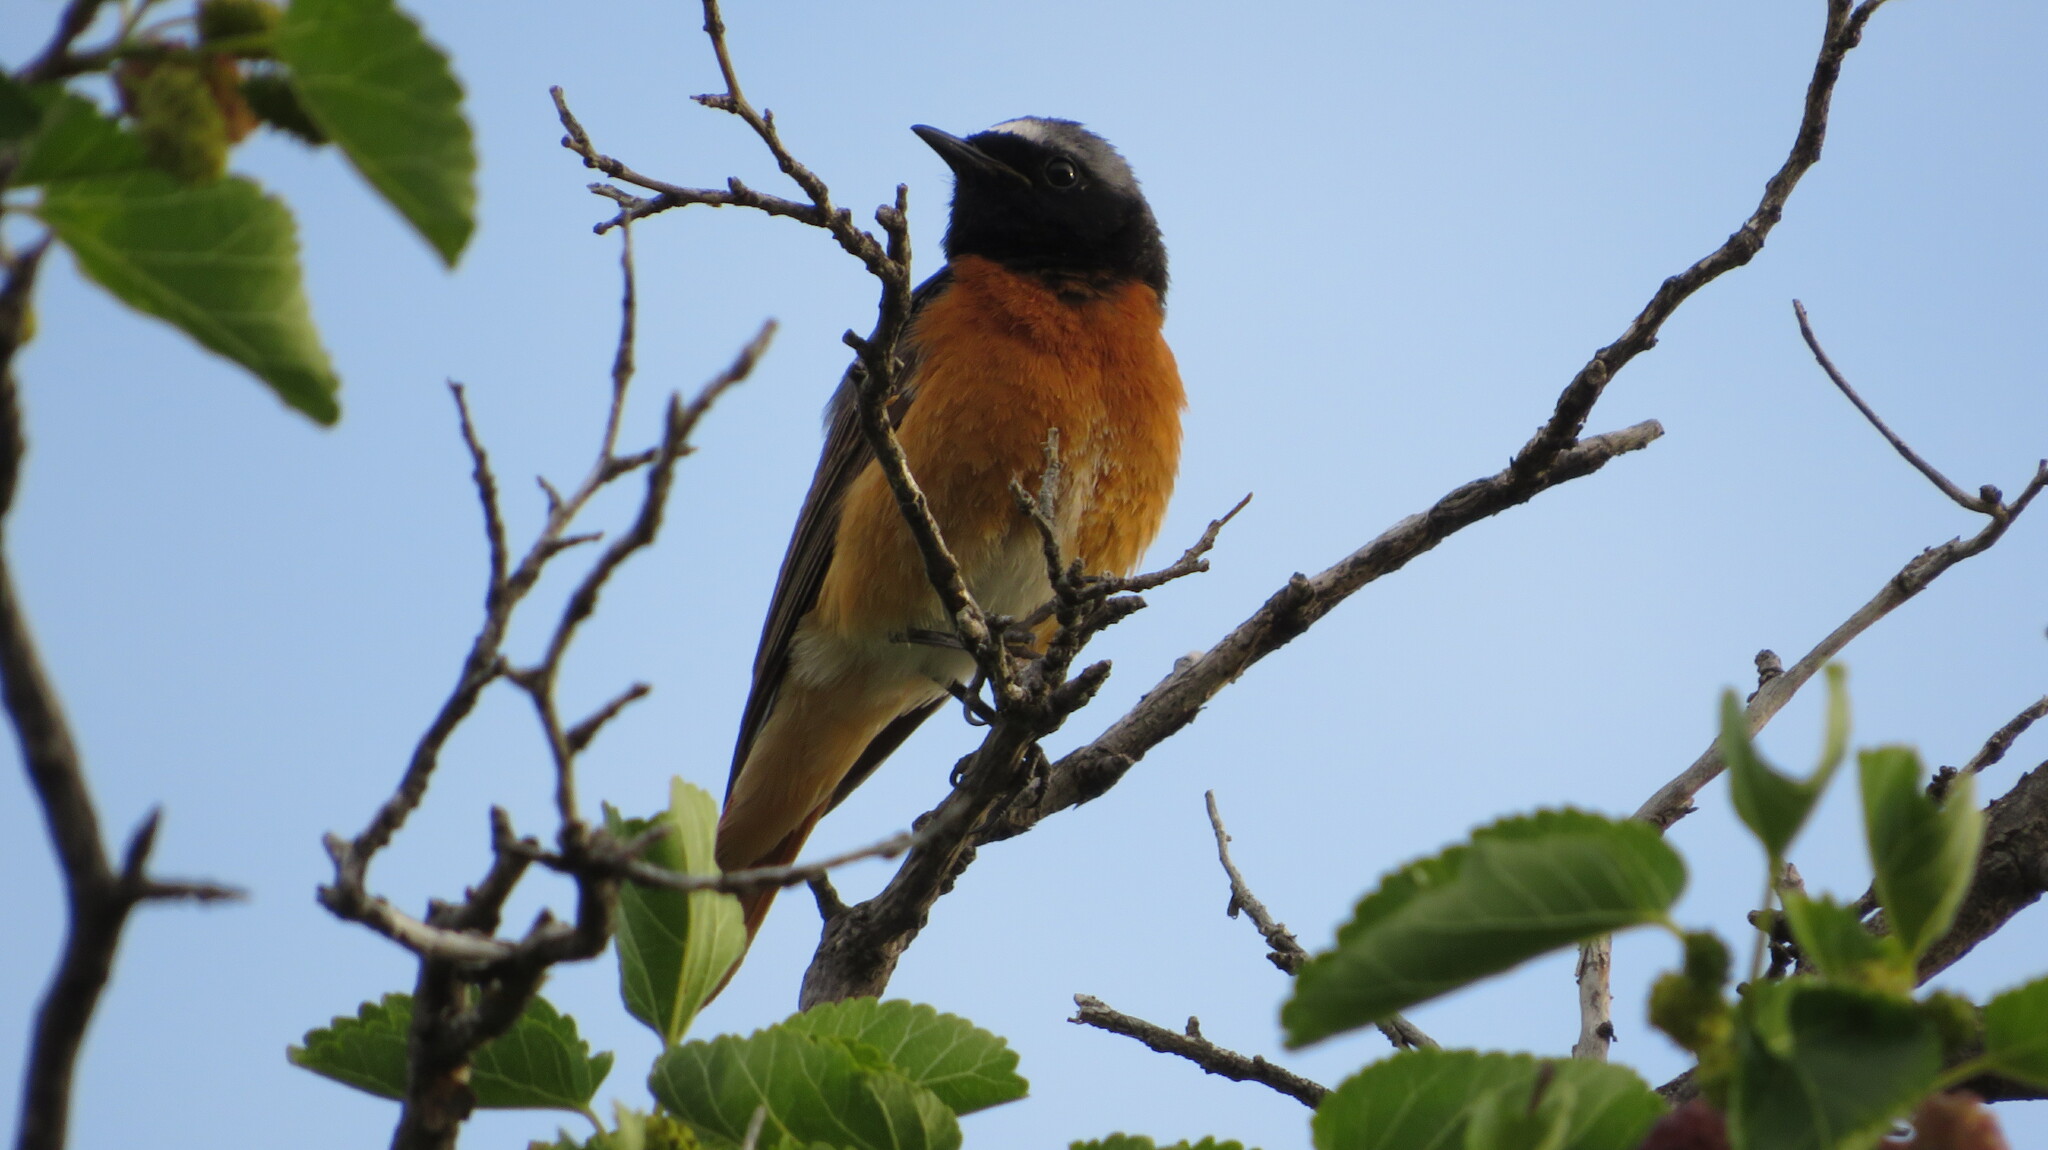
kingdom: Animalia
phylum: Chordata
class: Aves
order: Passeriformes
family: Muscicapidae
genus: Phoenicurus
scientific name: Phoenicurus phoenicurus
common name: Common redstart
